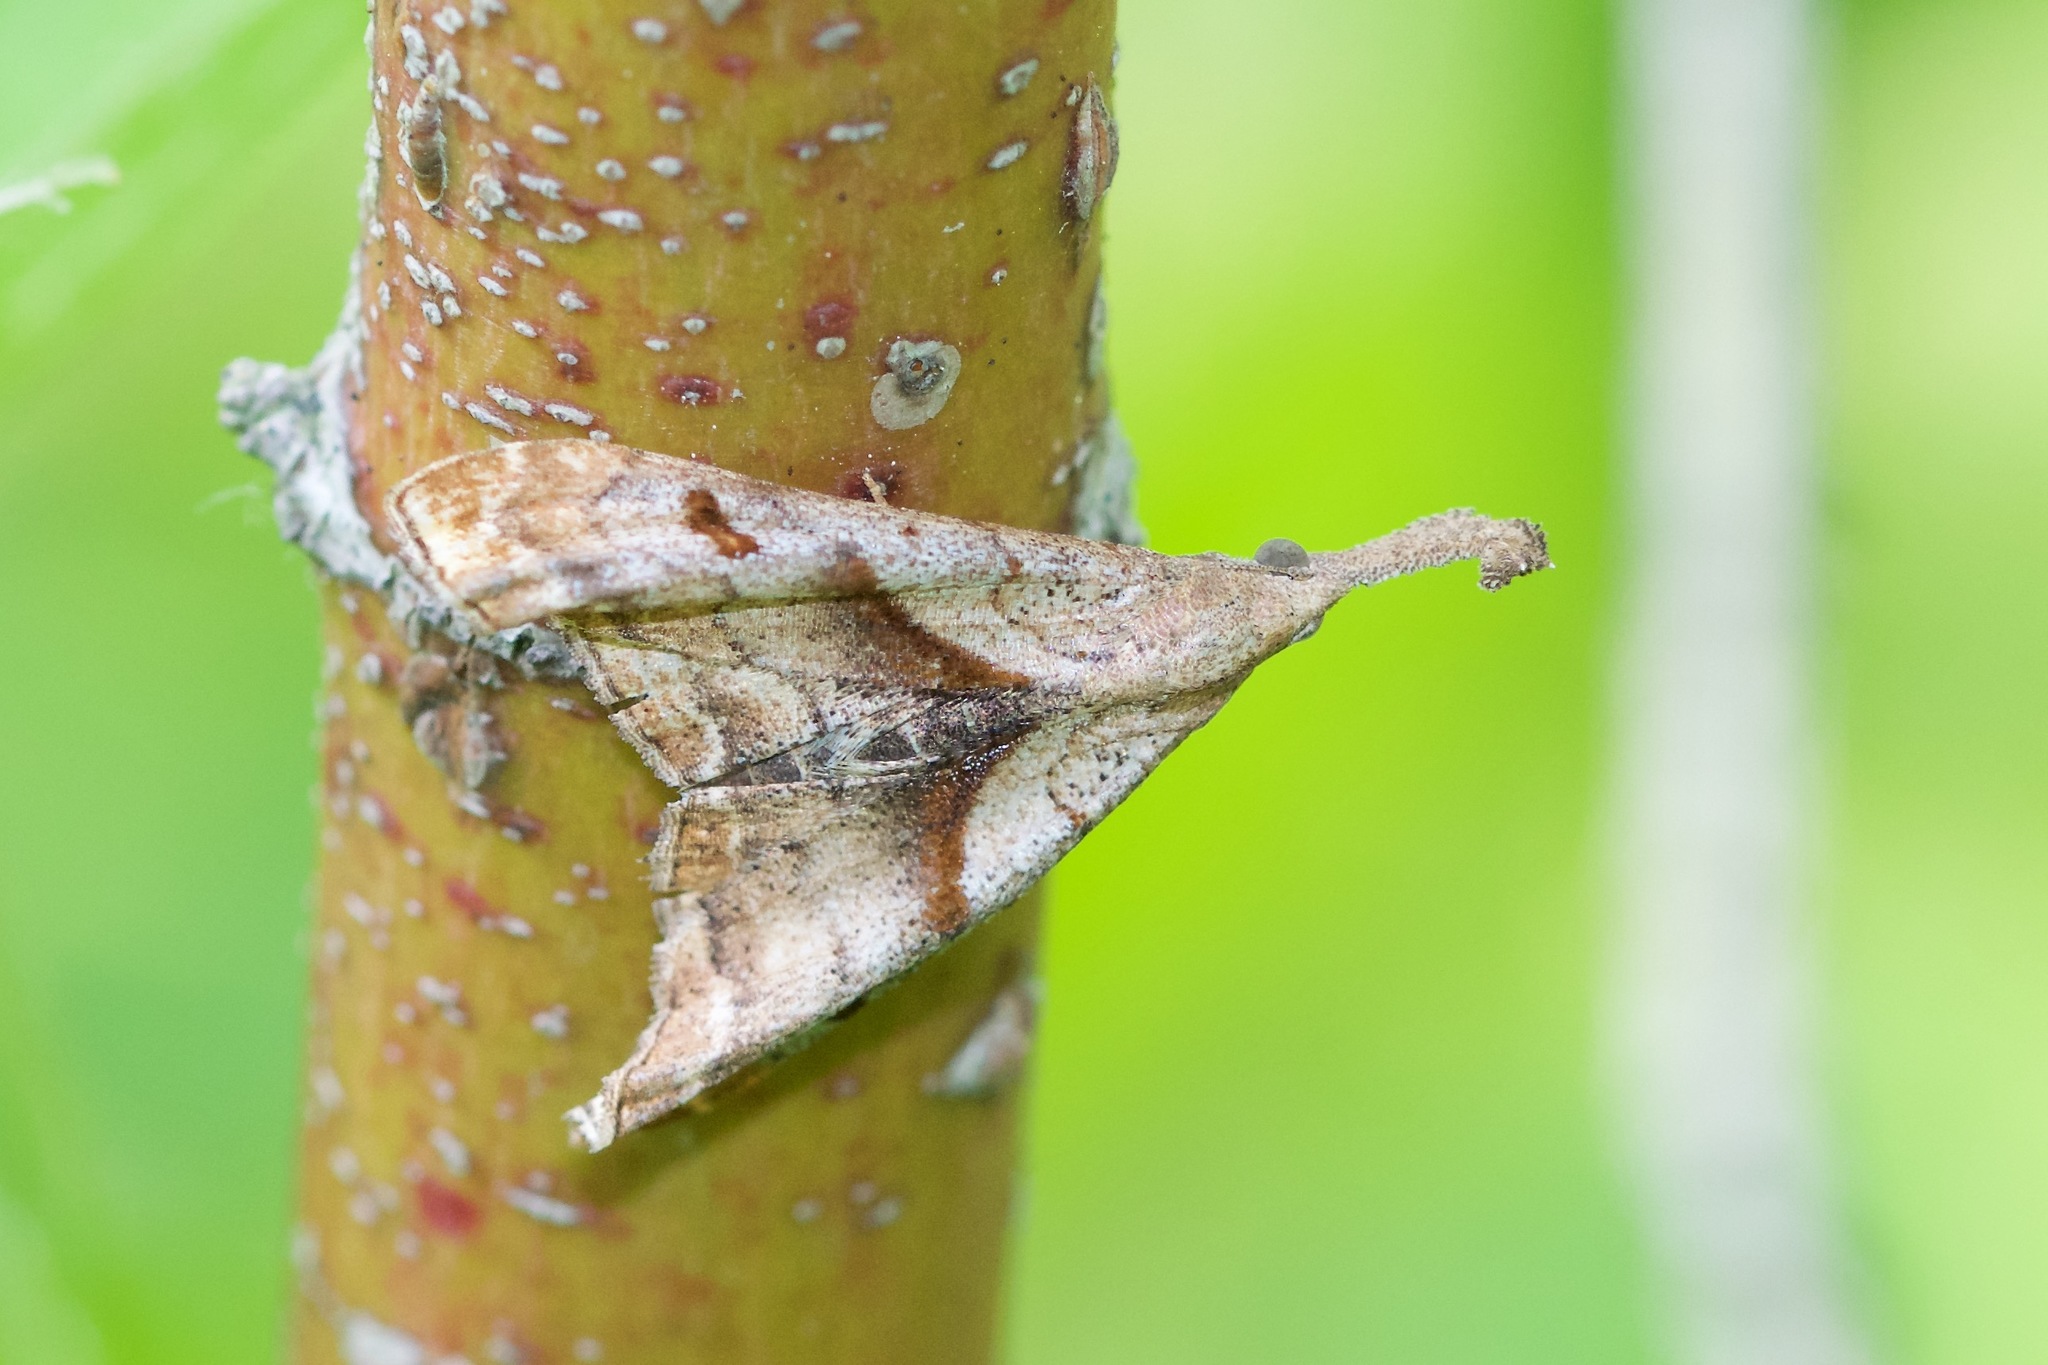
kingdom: Animalia
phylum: Arthropoda
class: Insecta
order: Lepidoptera
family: Erebidae
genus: Palthis
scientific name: Palthis angulalis
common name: Dark-spotted palthis moth
